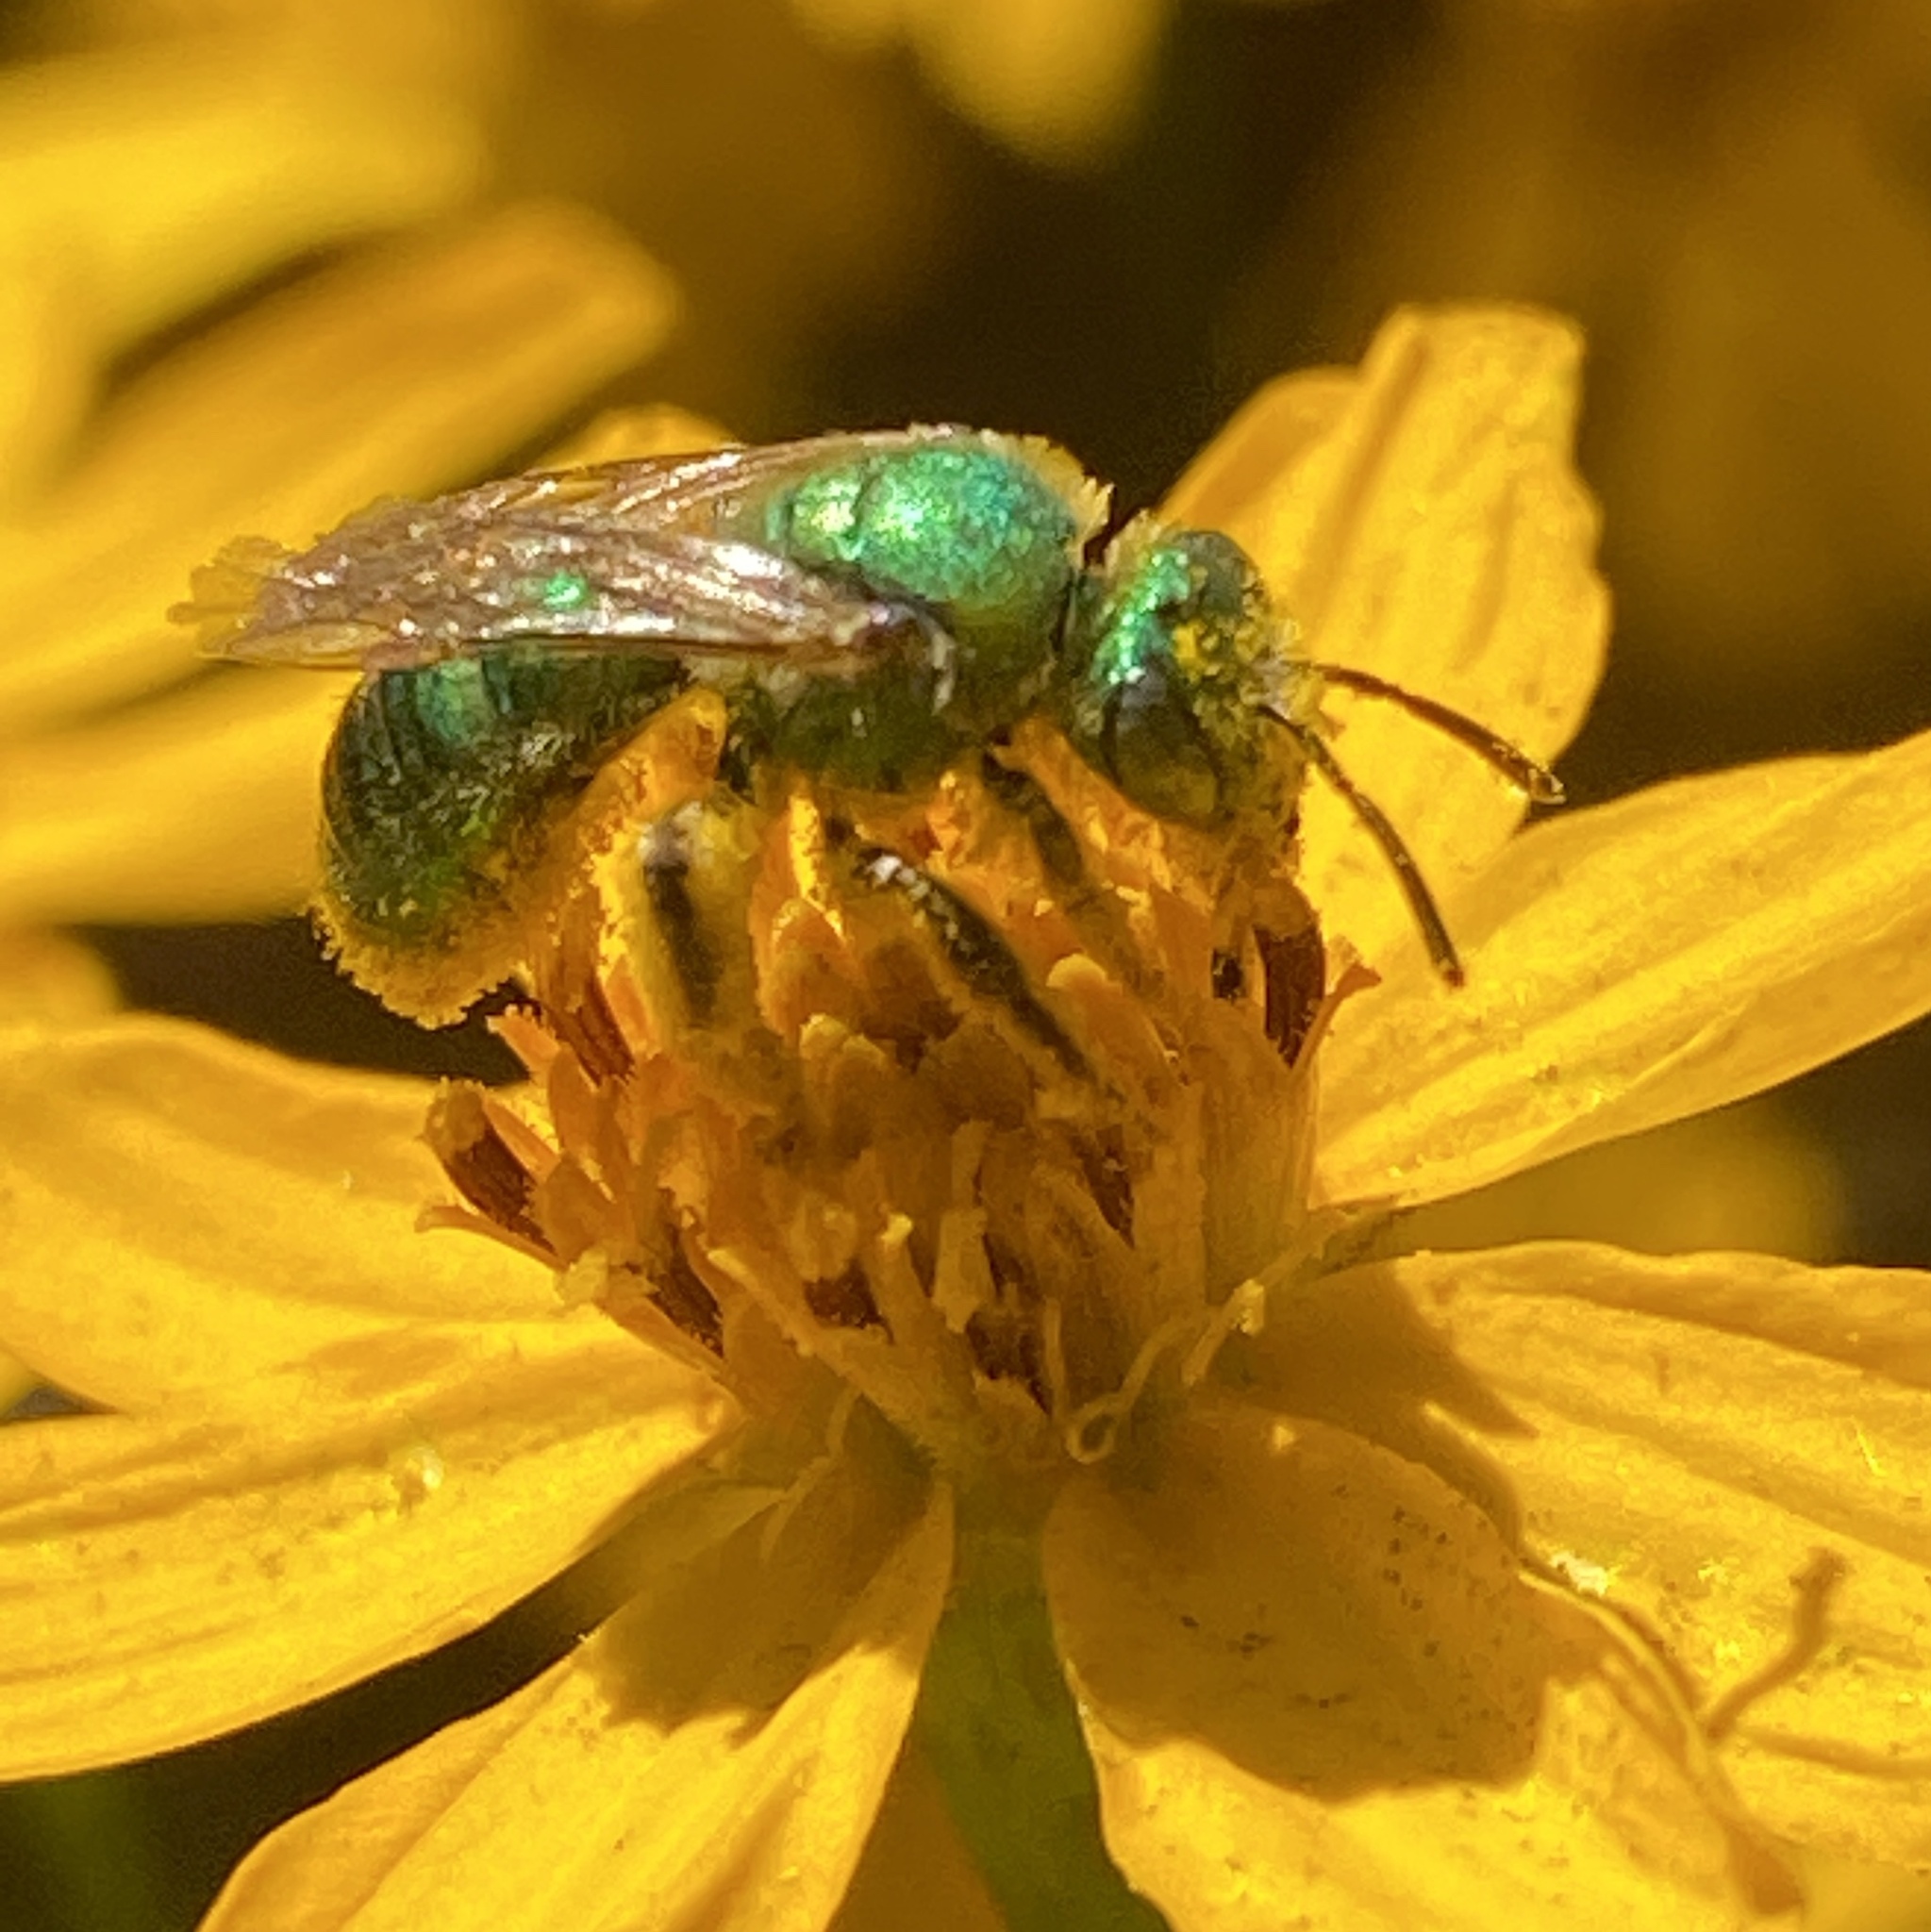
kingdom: Animalia
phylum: Arthropoda
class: Insecta
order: Hymenoptera
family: Halictidae
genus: Agapostemon
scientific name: Agapostemon texanus
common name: Texas striped sweat bee
